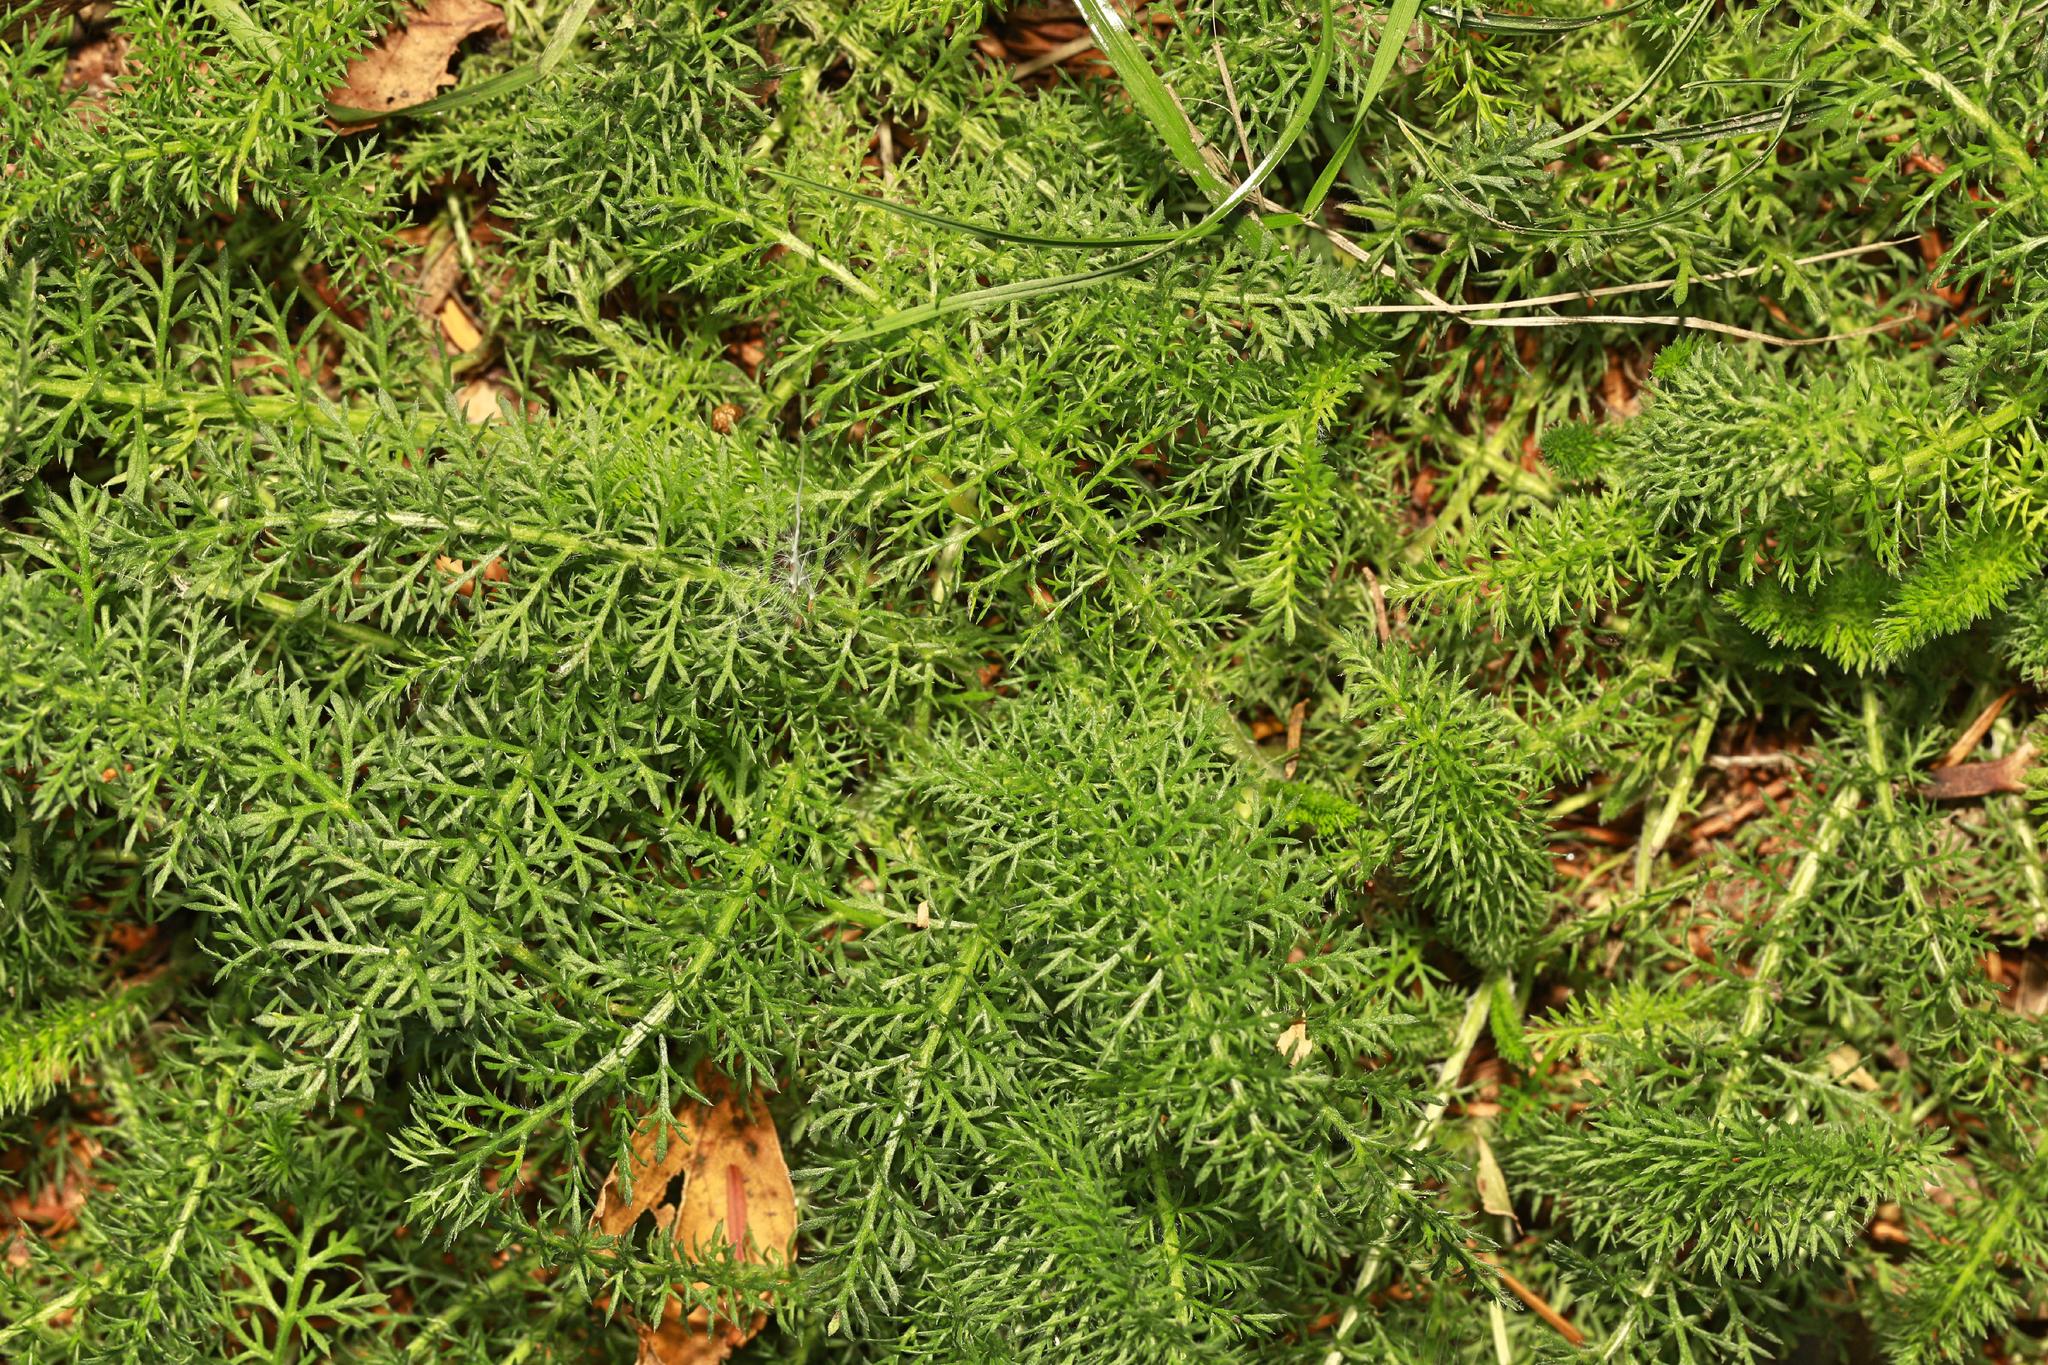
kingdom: Plantae
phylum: Tracheophyta
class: Magnoliopsida
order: Asterales
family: Asteraceae
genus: Achillea
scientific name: Achillea millefolium
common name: Yarrow
